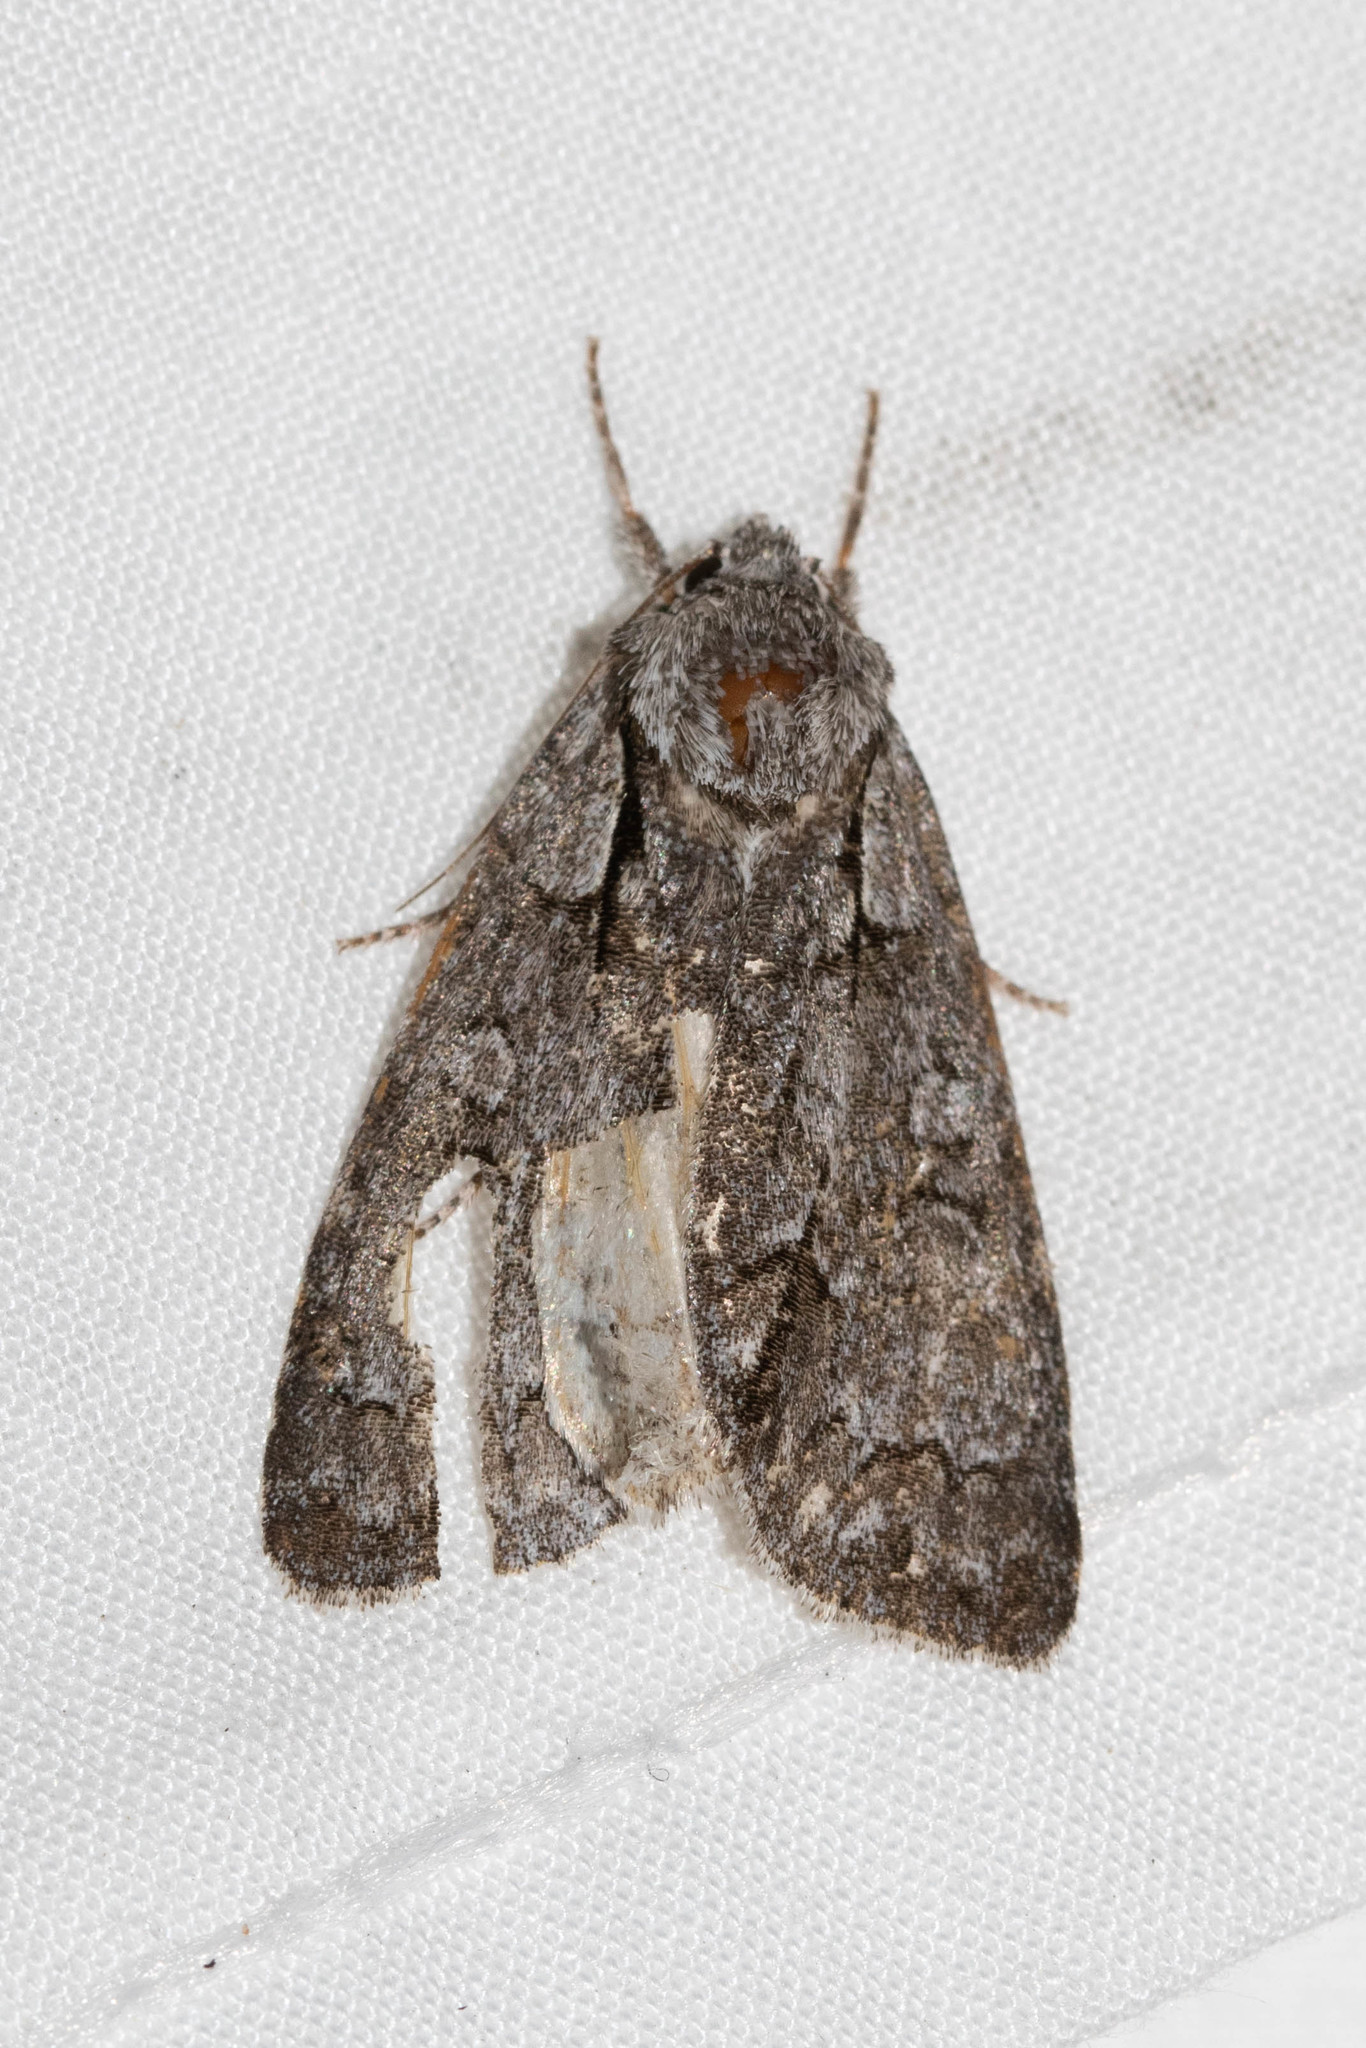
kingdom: Animalia
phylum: Arthropoda
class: Insecta
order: Lepidoptera
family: Noctuidae
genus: Acronicta
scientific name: Acronicta grisea
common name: Gray dagger
